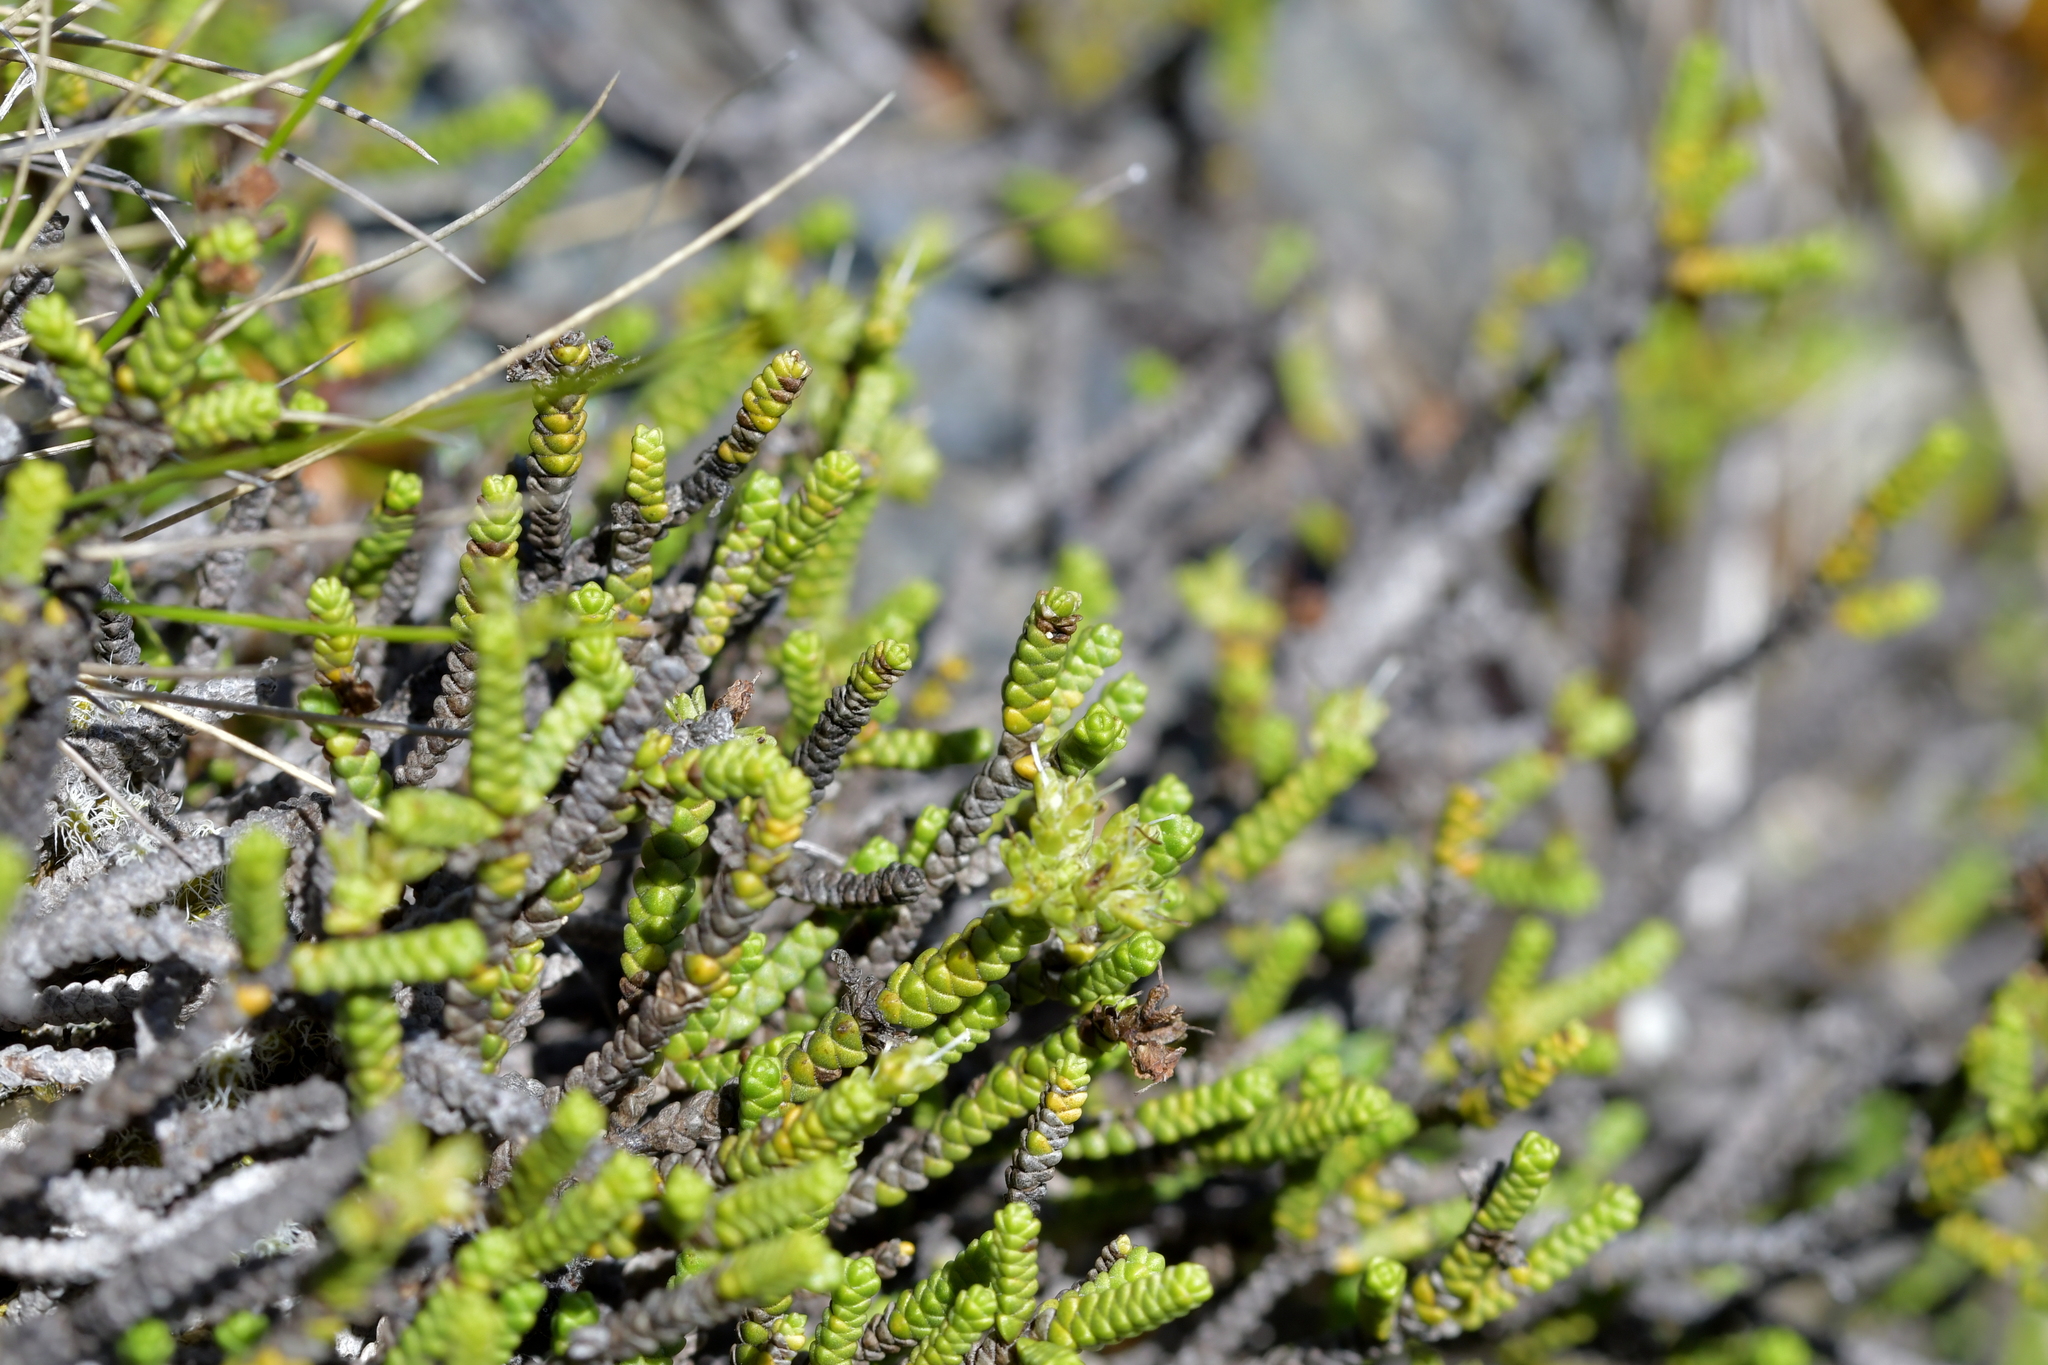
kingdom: Plantae
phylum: Tracheophyta
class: Magnoliopsida
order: Lamiales
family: Plantaginaceae
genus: Veronica
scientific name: Veronica tumida
